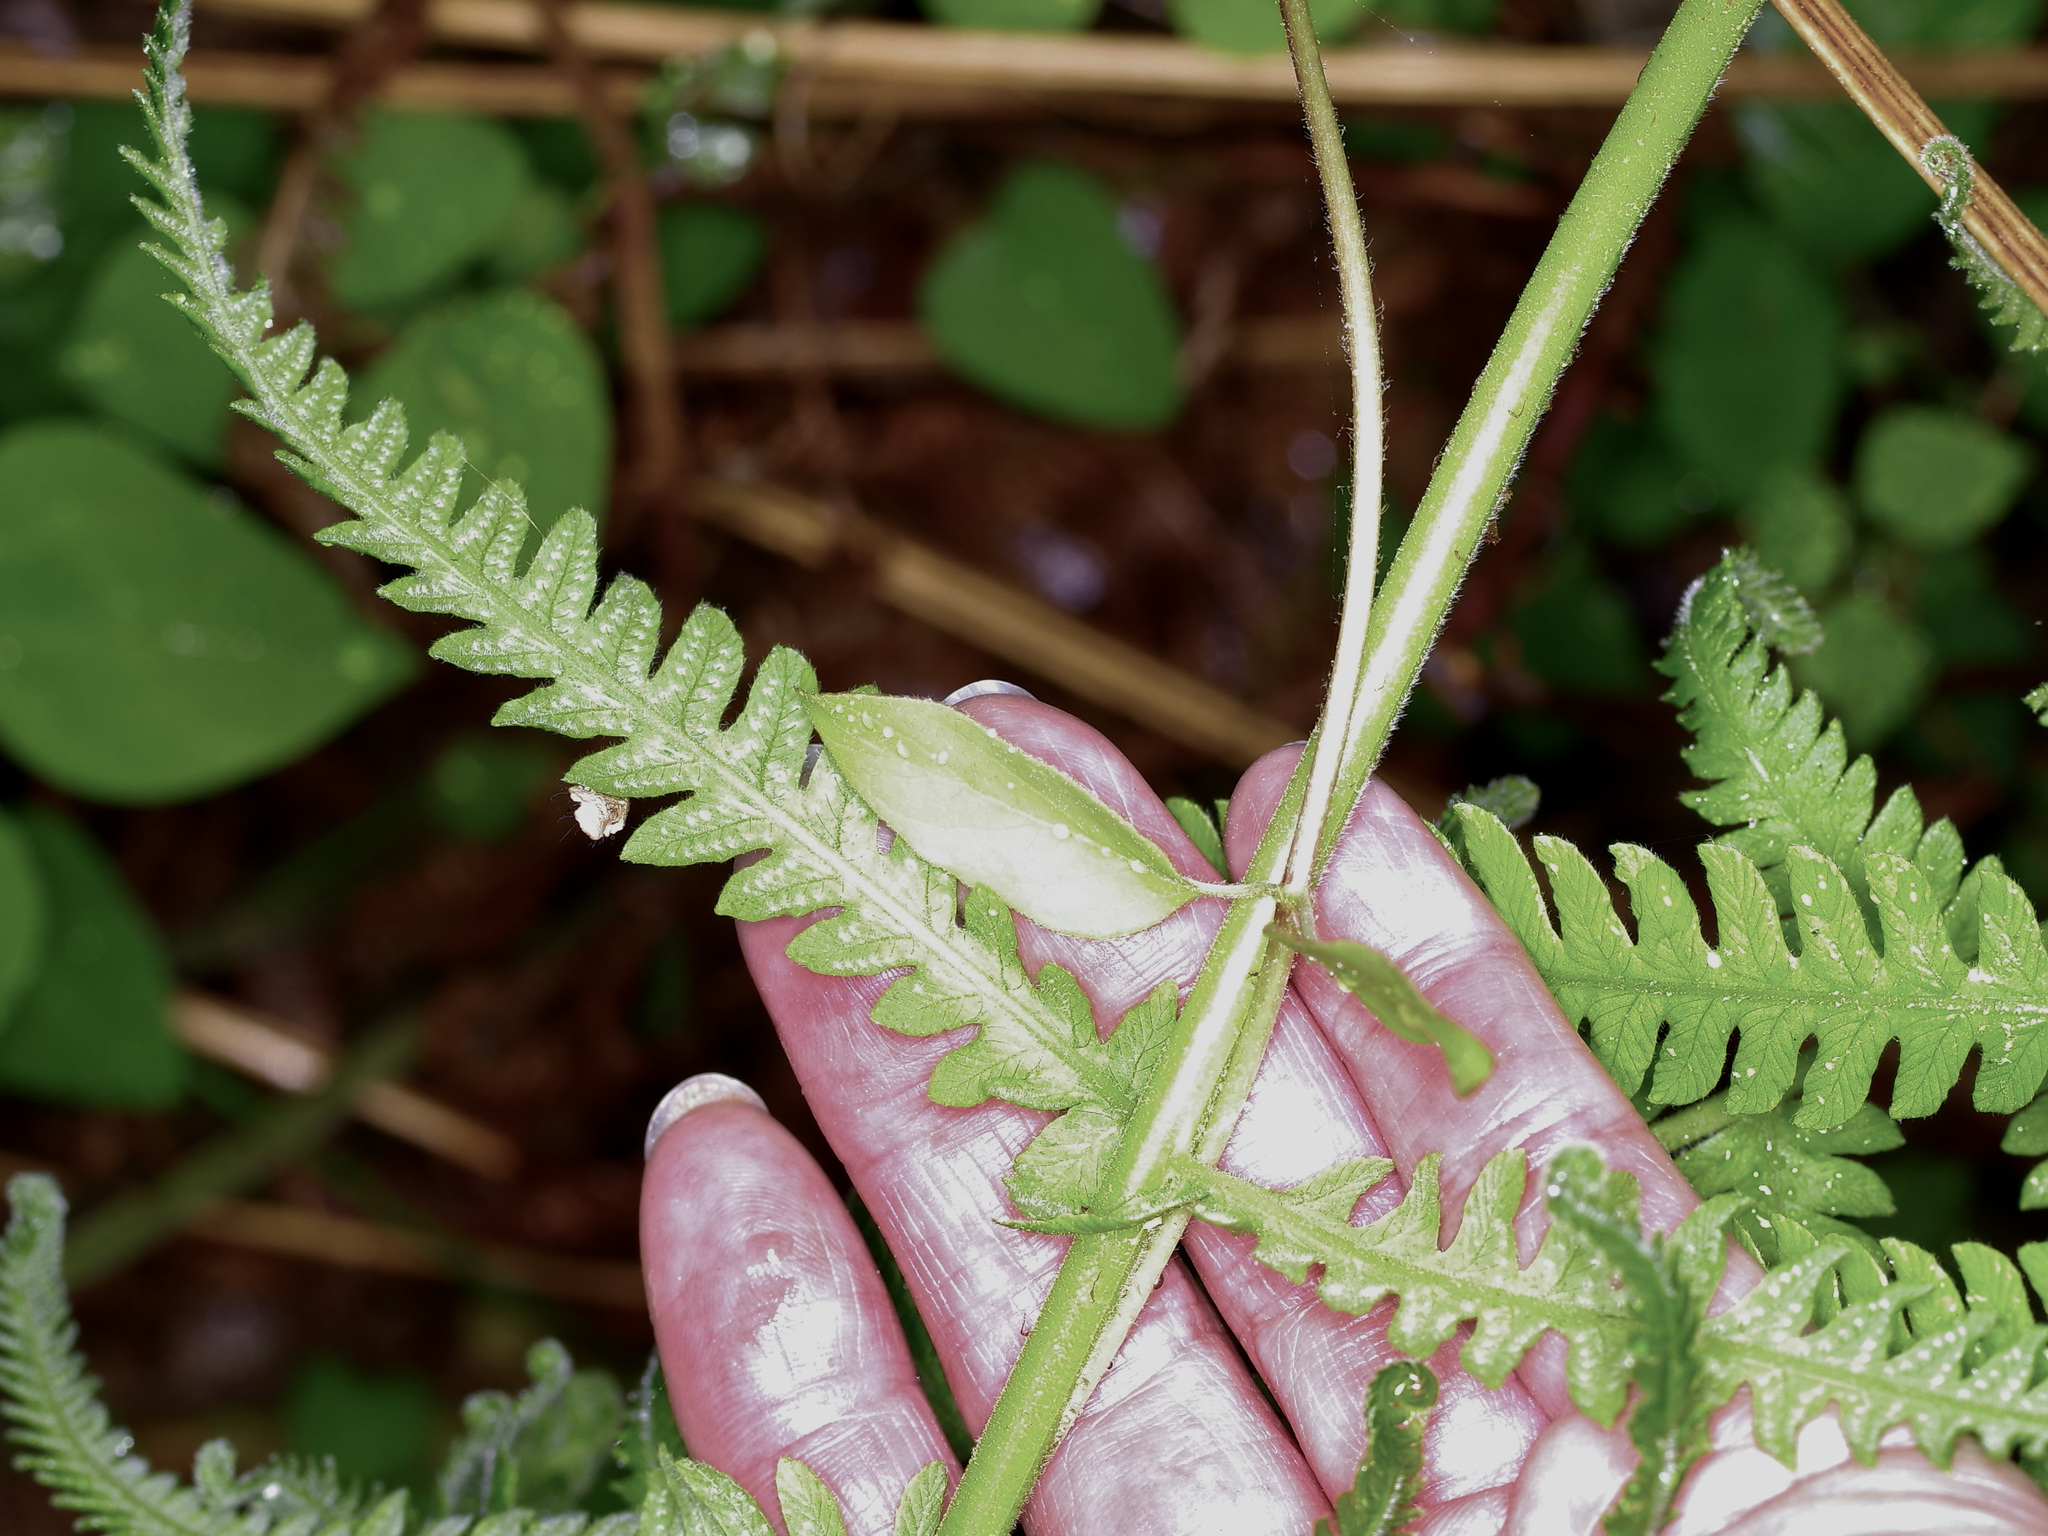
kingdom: Plantae
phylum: Tracheophyta
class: Polypodiopsida
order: Osmundales
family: Osmundaceae
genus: Osmundastrum
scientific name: Osmundastrum cinnamomeum
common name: Cinnamon fern
